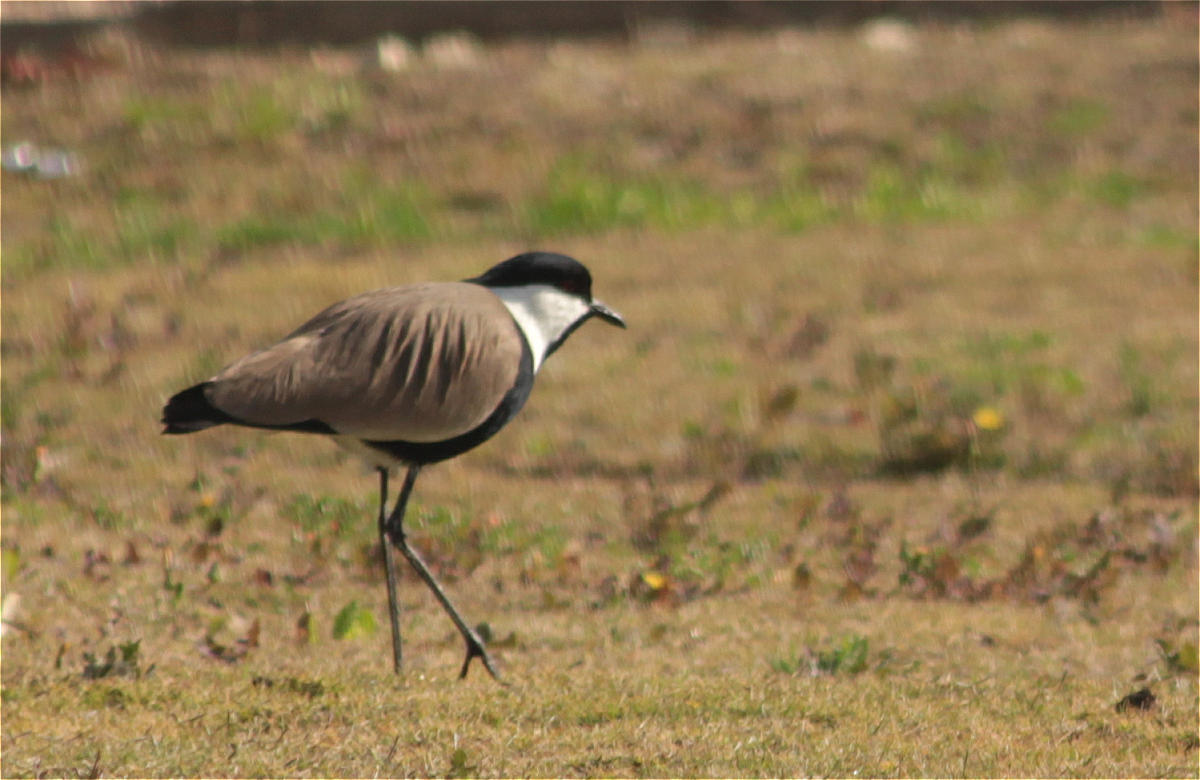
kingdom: Animalia
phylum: Chordata
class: Aves
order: Charadriiformes
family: Charadriidae
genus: Vanellus
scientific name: Vanellus spinosus
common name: Spur-winged lapwing
